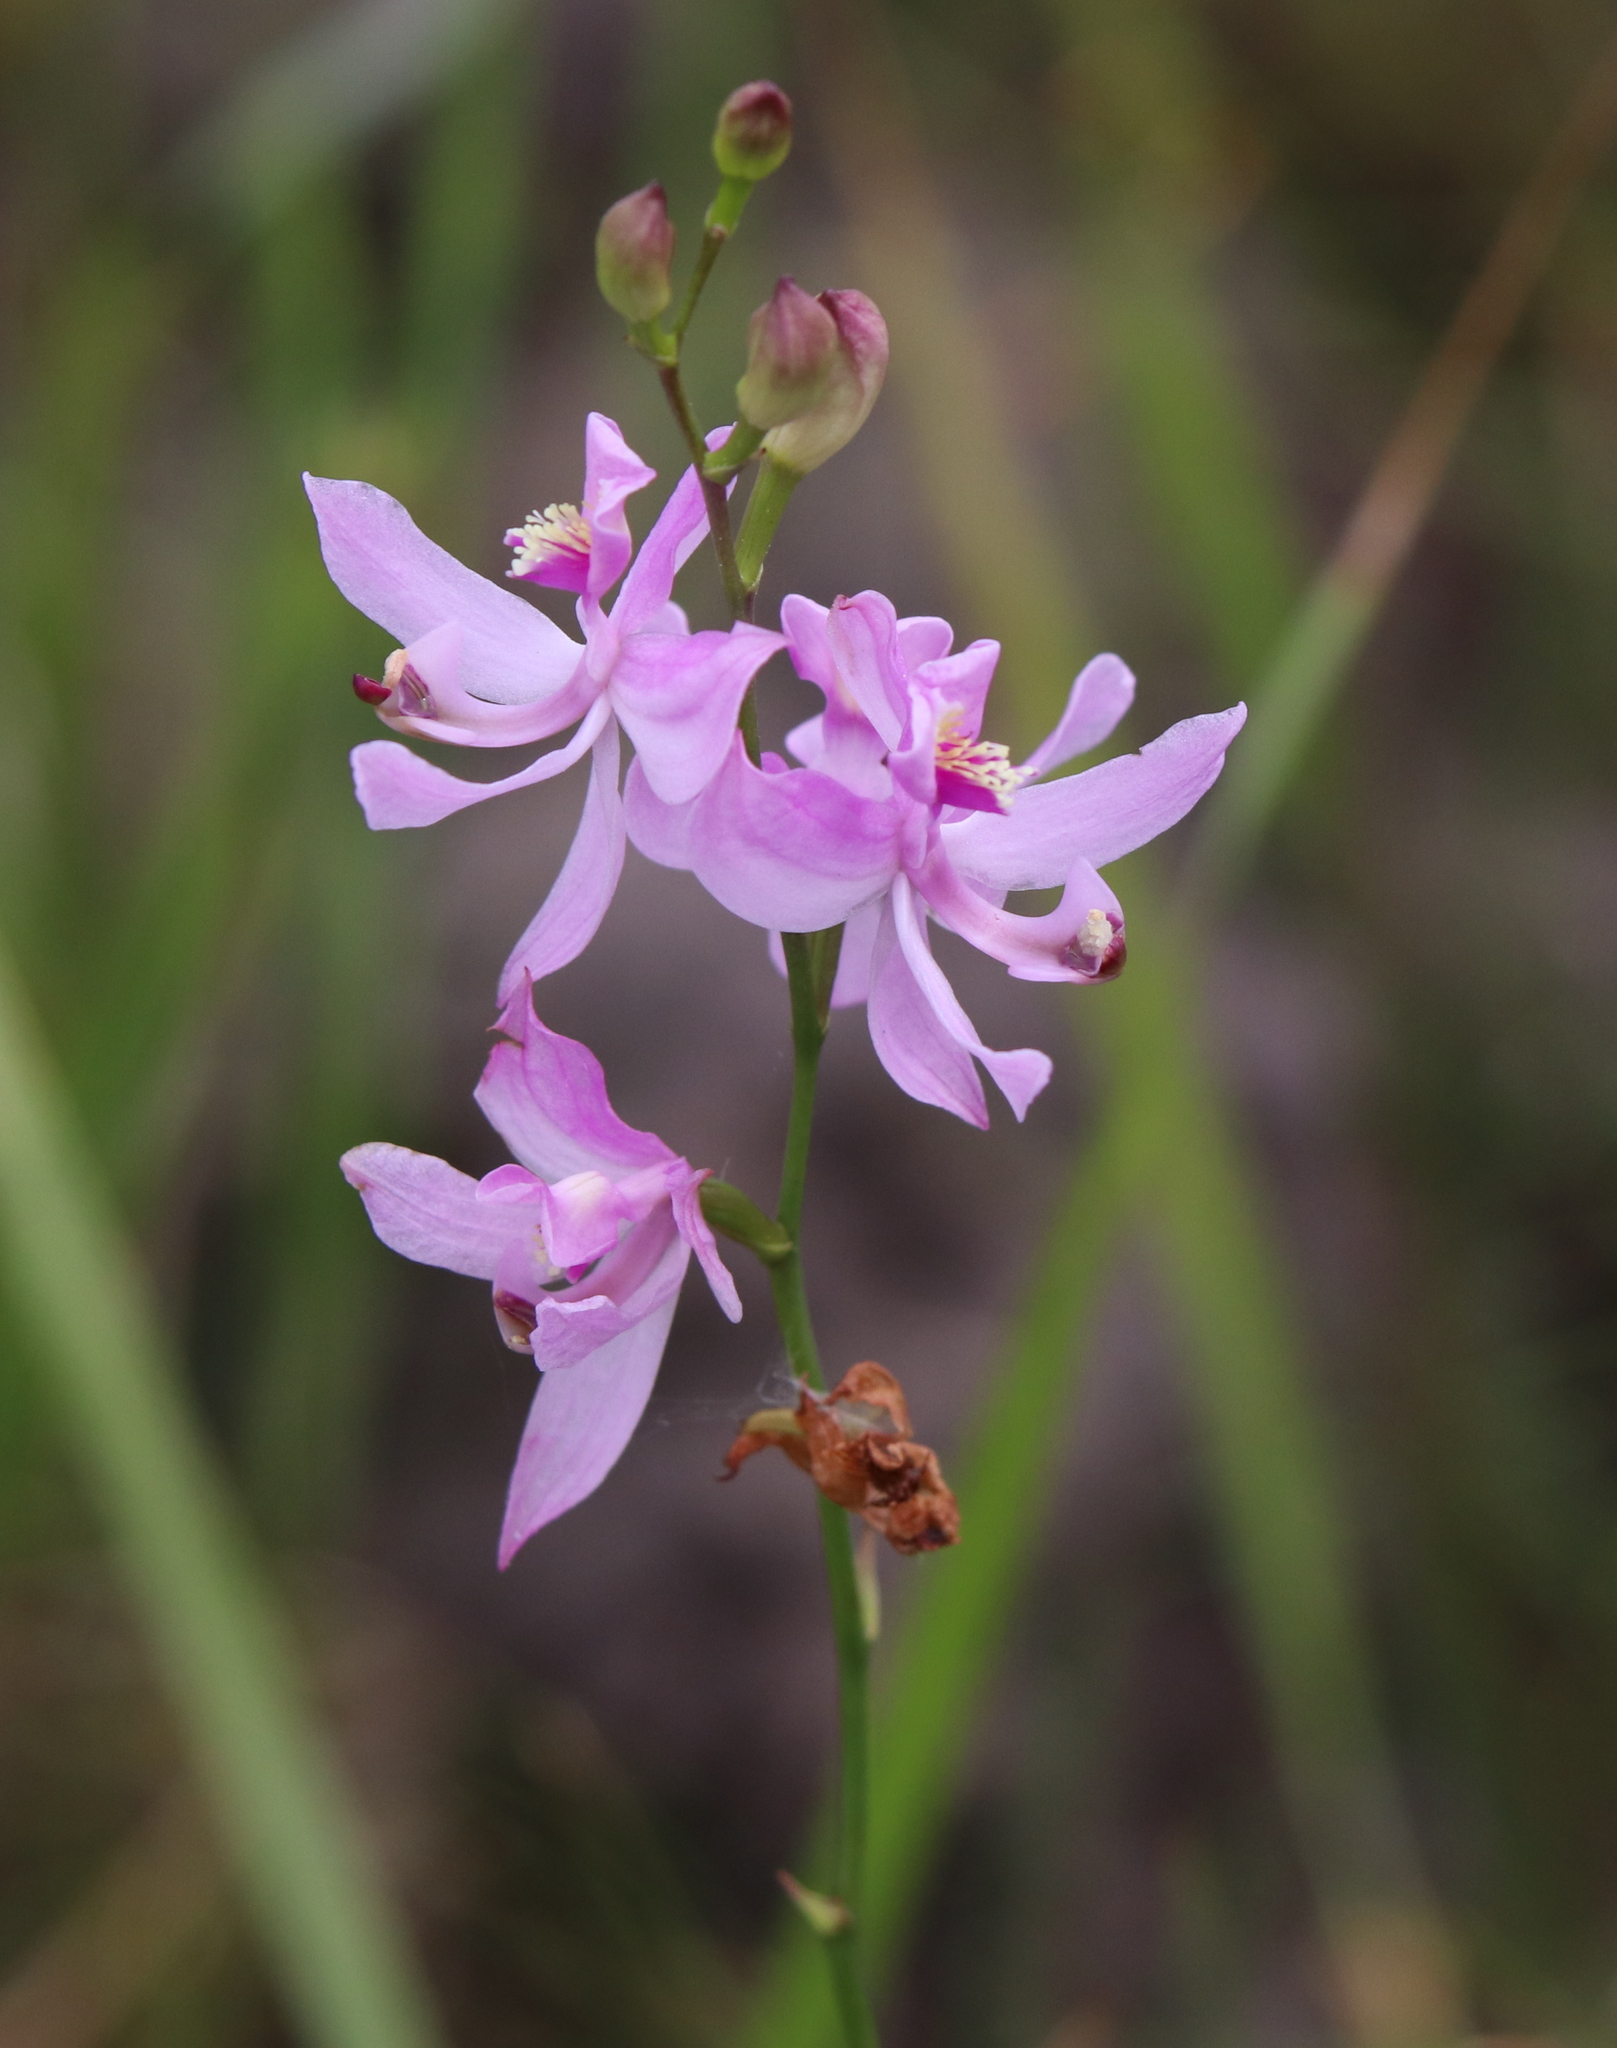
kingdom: Plantae
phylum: Tracheophyta
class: Liliopsida
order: Asparagales
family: Orchidaceae
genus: Calopogon
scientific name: Calopogon pallidus
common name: Pale grasspink
